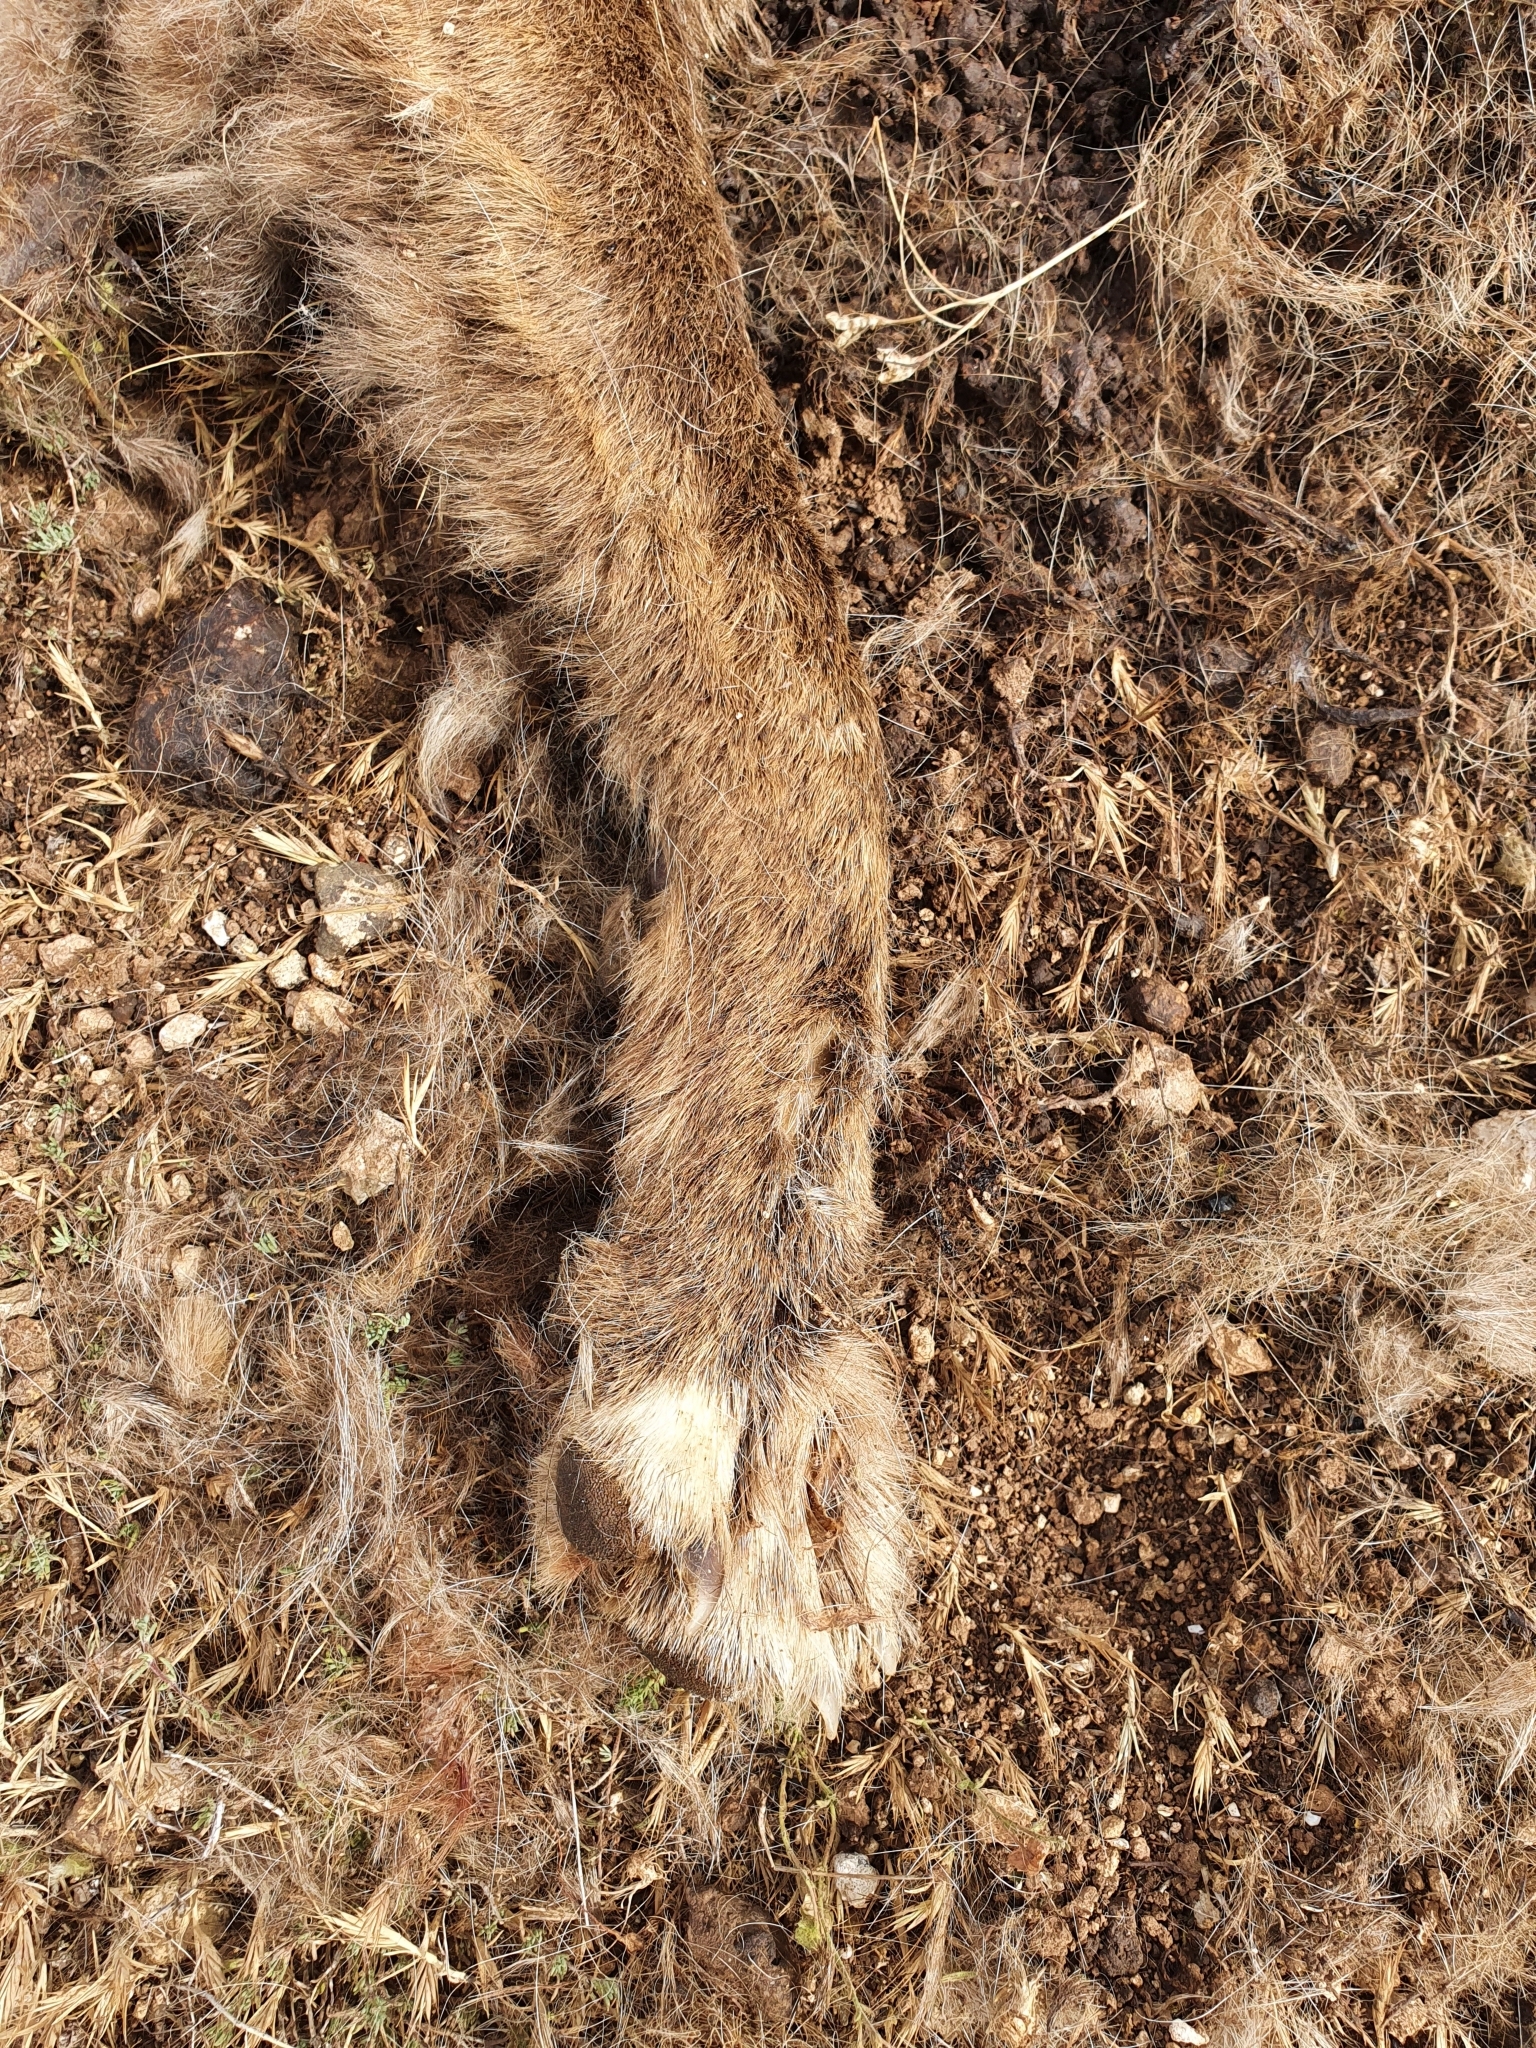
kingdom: Animalia
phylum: Chordata
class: Mammalia
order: Carnivora
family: Canidae
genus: Canis
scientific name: Canis lupus
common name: Gray wolf
